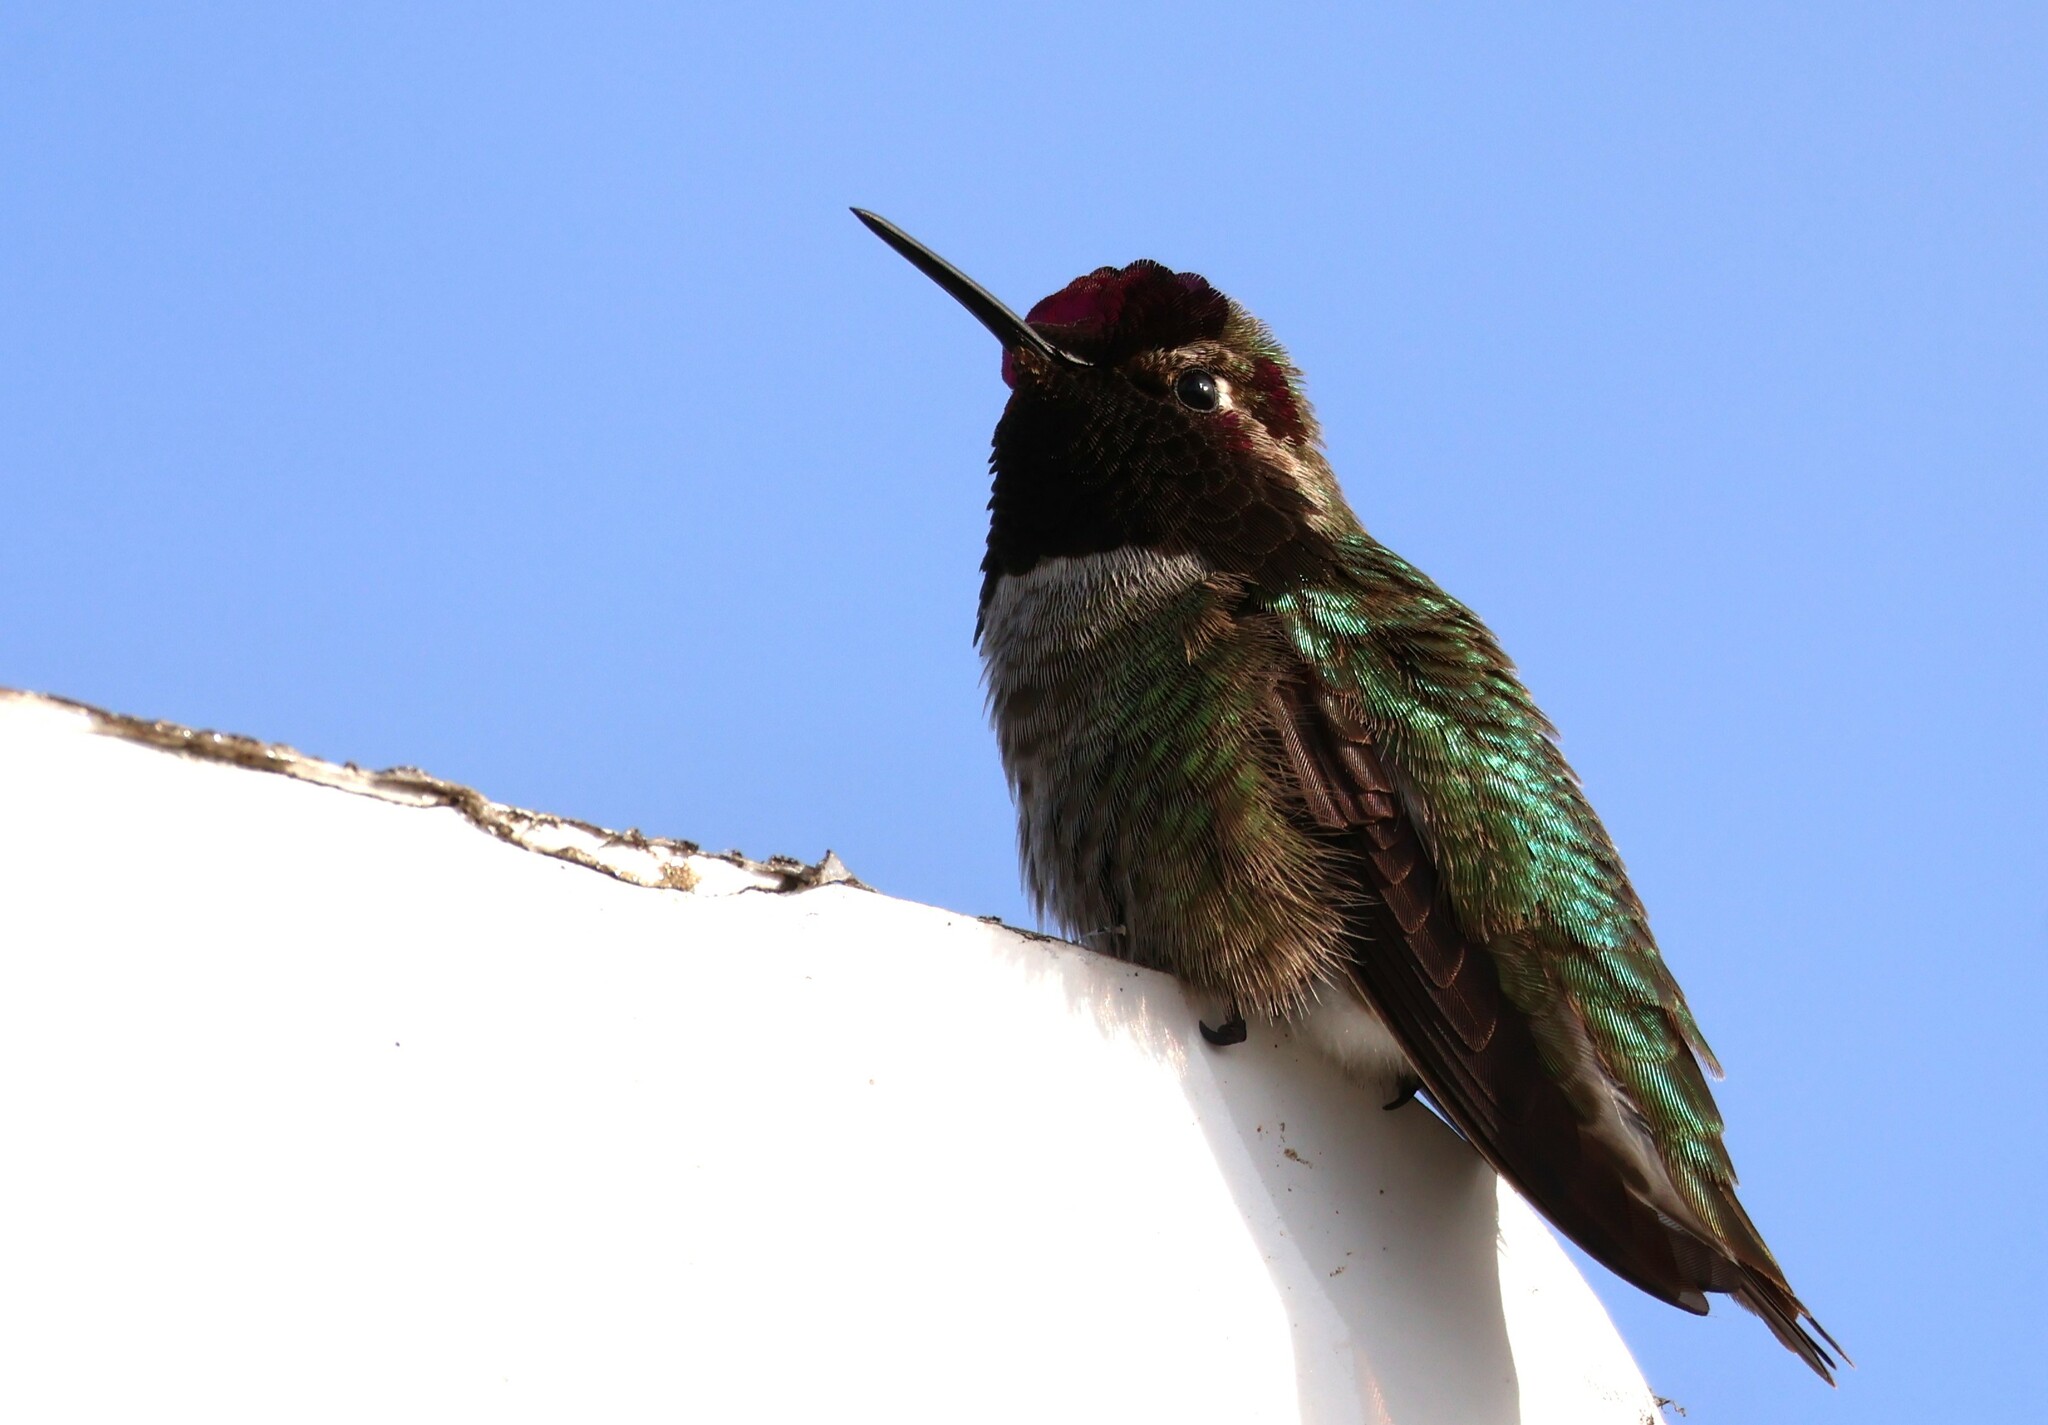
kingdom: Animalia
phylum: Chordata
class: Aves
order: Apodiformes
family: Trochilidae
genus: Calypte
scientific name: Calypte anna
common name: Anna's hummingbird
